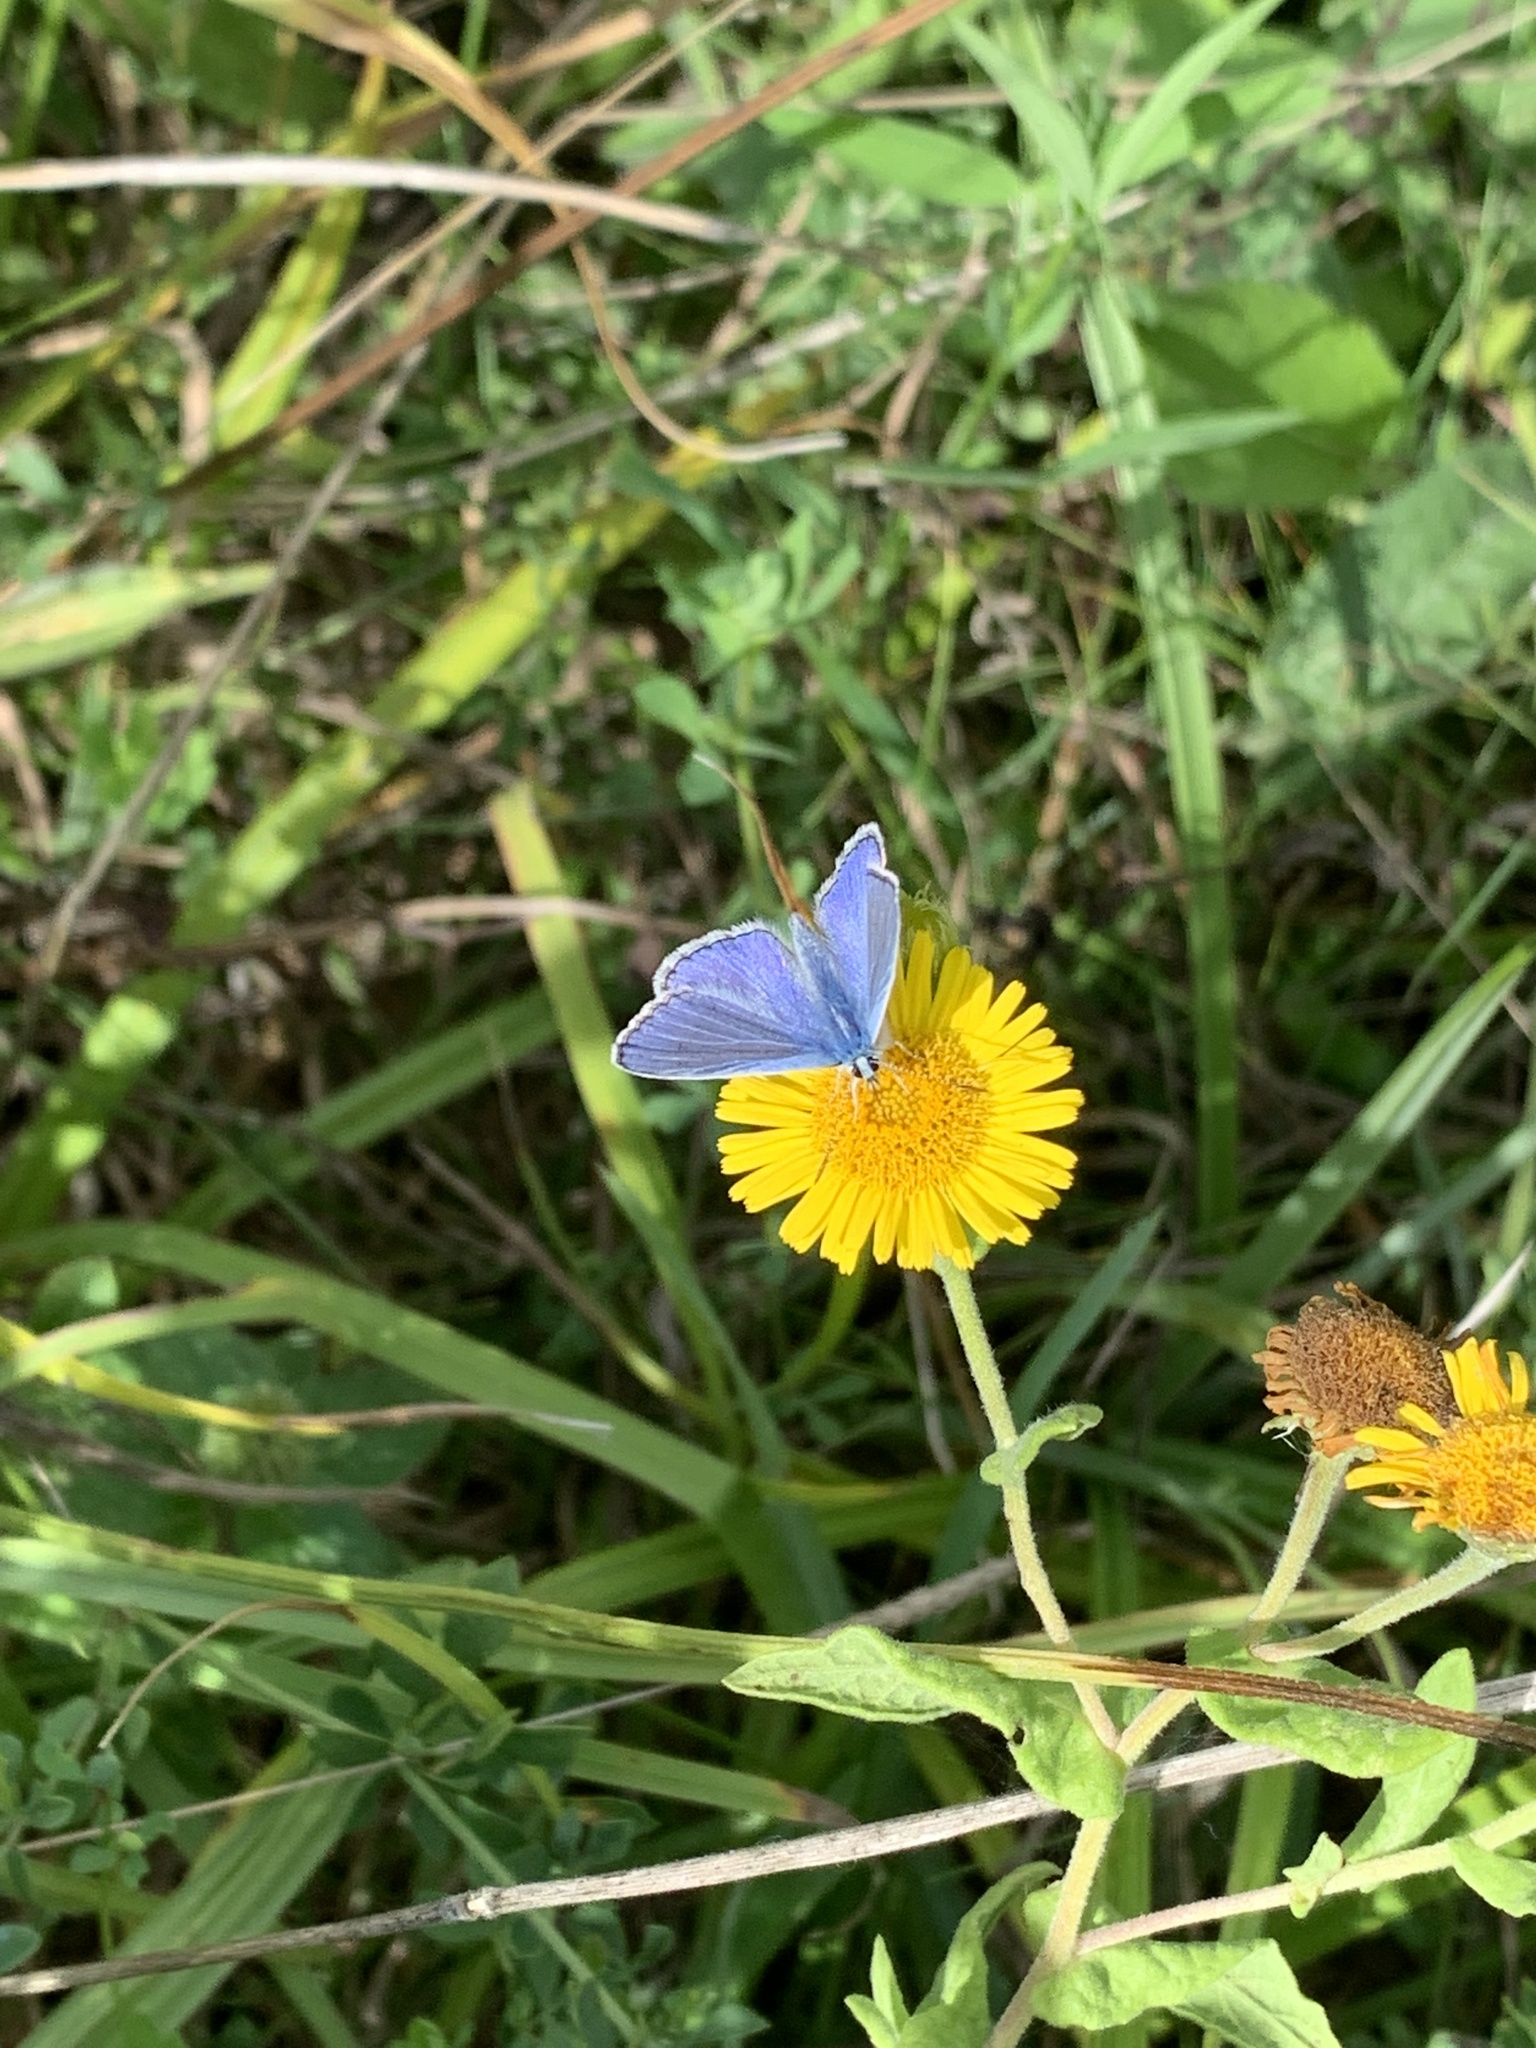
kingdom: Animalia
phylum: Arthropoda
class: Insecta
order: Lepidoptera
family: Lycaenidae
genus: Polyommatus
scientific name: Polyommatus icarus
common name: Common blue
